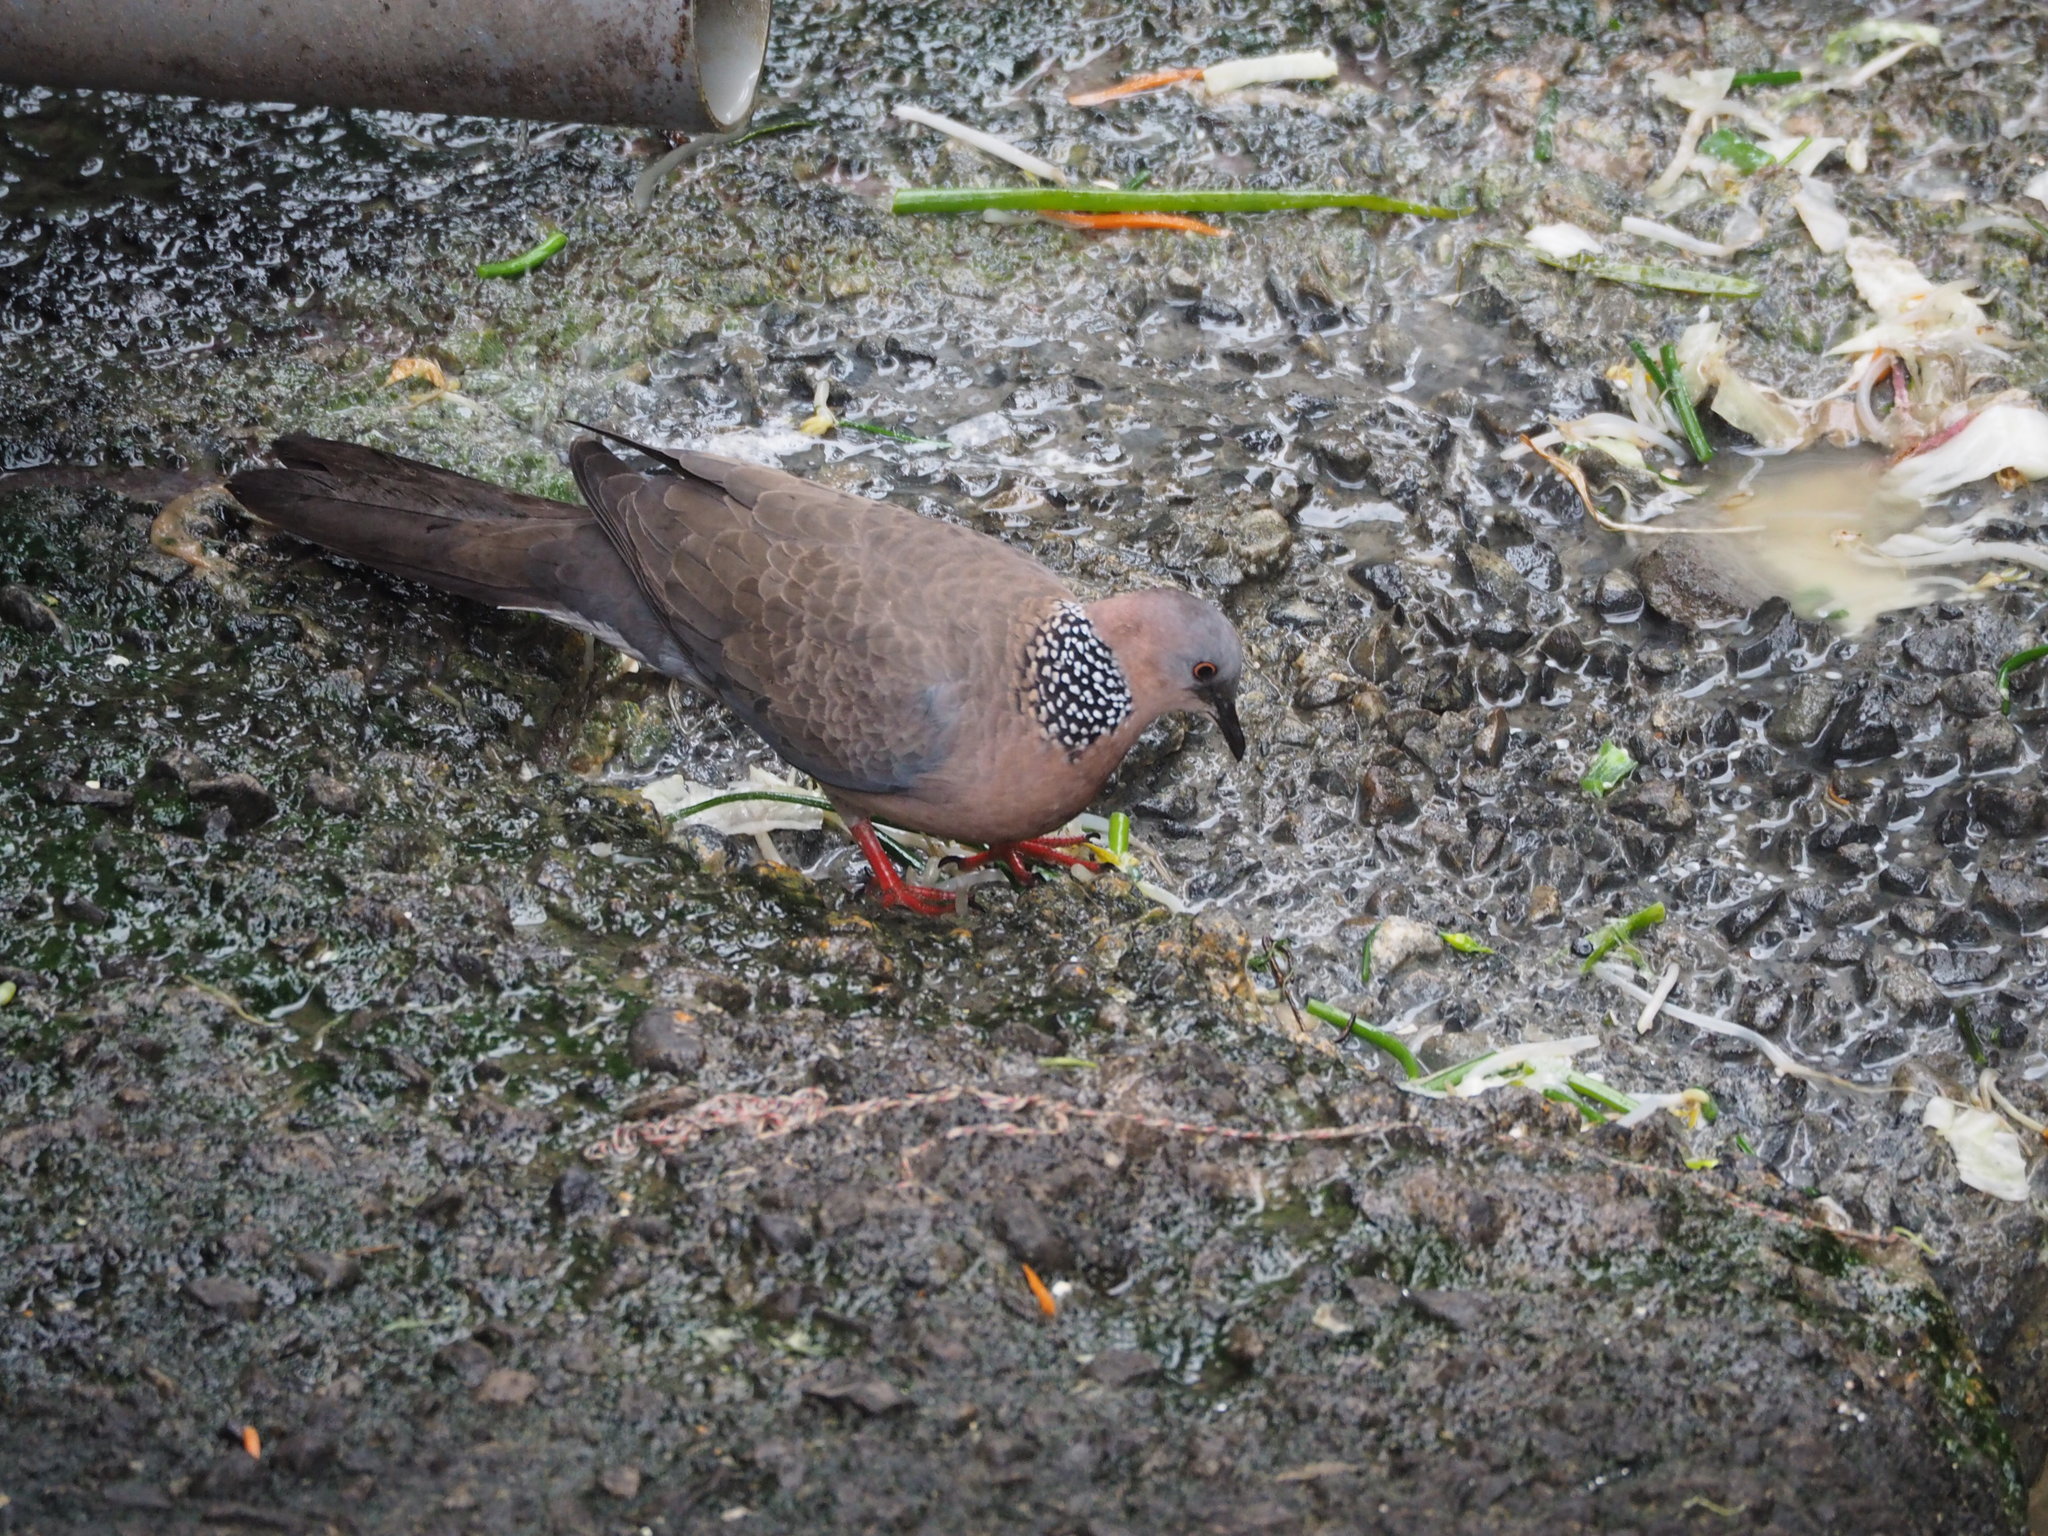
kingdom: Animalia
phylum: Chordata
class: Aves
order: Columbiformes
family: Columbidae
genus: Spilopelia
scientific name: Spilopelia chinensis
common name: Spotted dove
